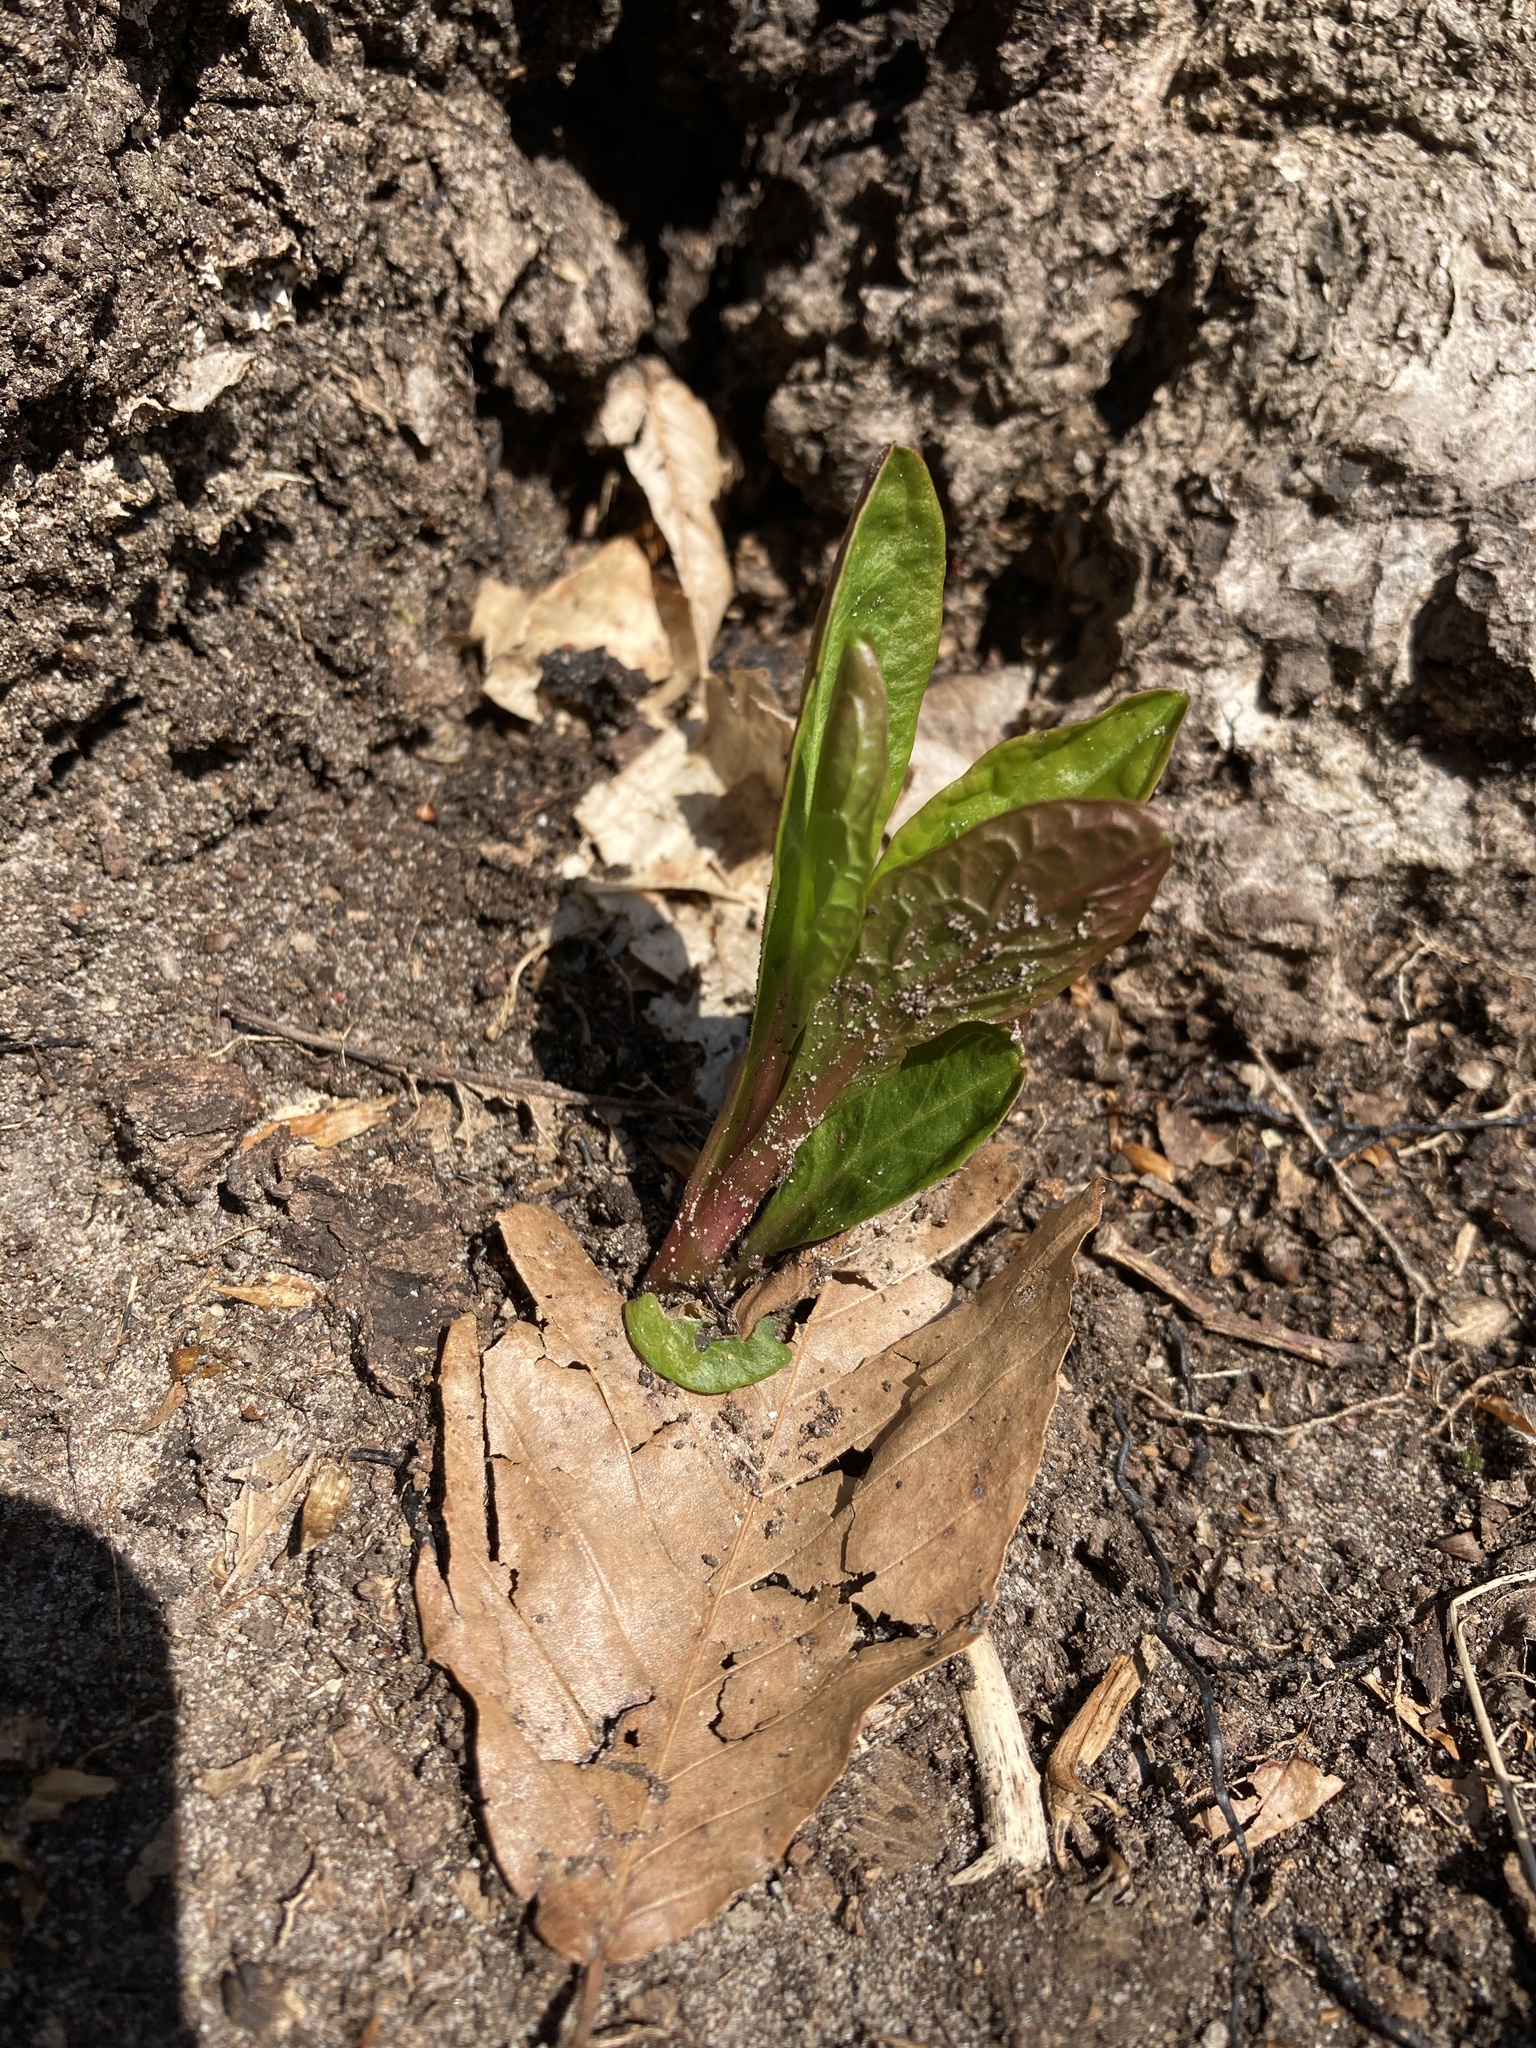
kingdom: Plantae
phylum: Tracheophyta
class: Magnoliopsida
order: Caryophyllales
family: Phytolaccaceae
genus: Phytolacca
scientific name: Phytolacca americana
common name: American pokeweed
